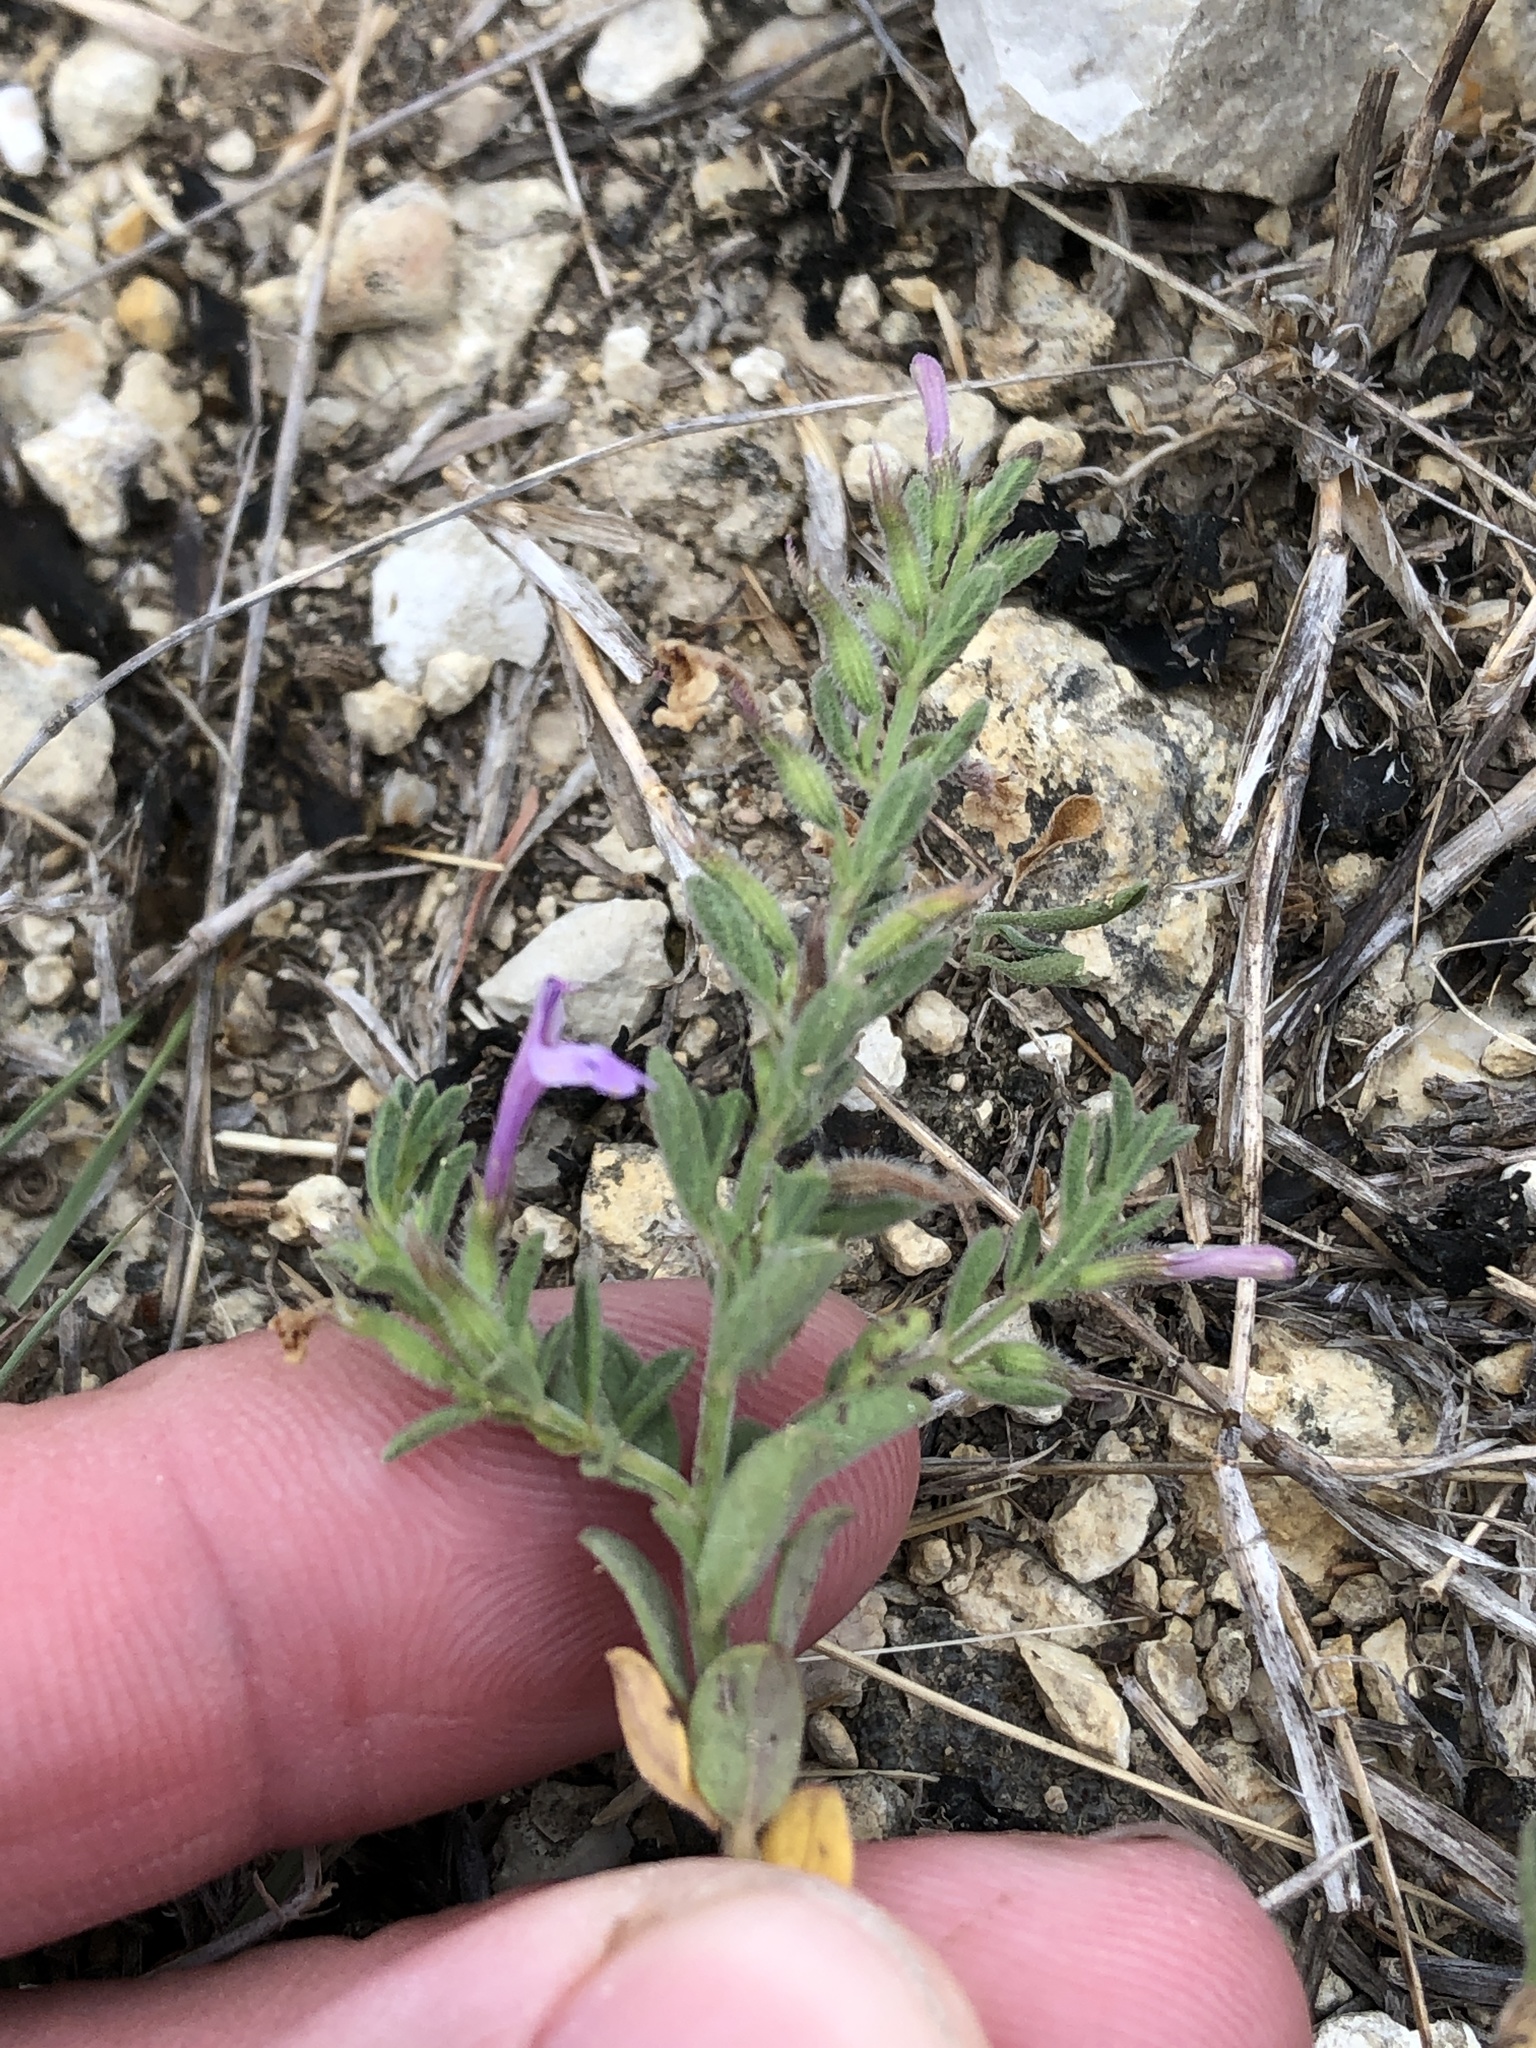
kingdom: Plantae
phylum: Tracheophyta
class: Magnoliopsida
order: Lamiales
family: Lamiaceae
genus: Hedeoma
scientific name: Hedeoma reverchonii
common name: Reverchon's false penny-royal
